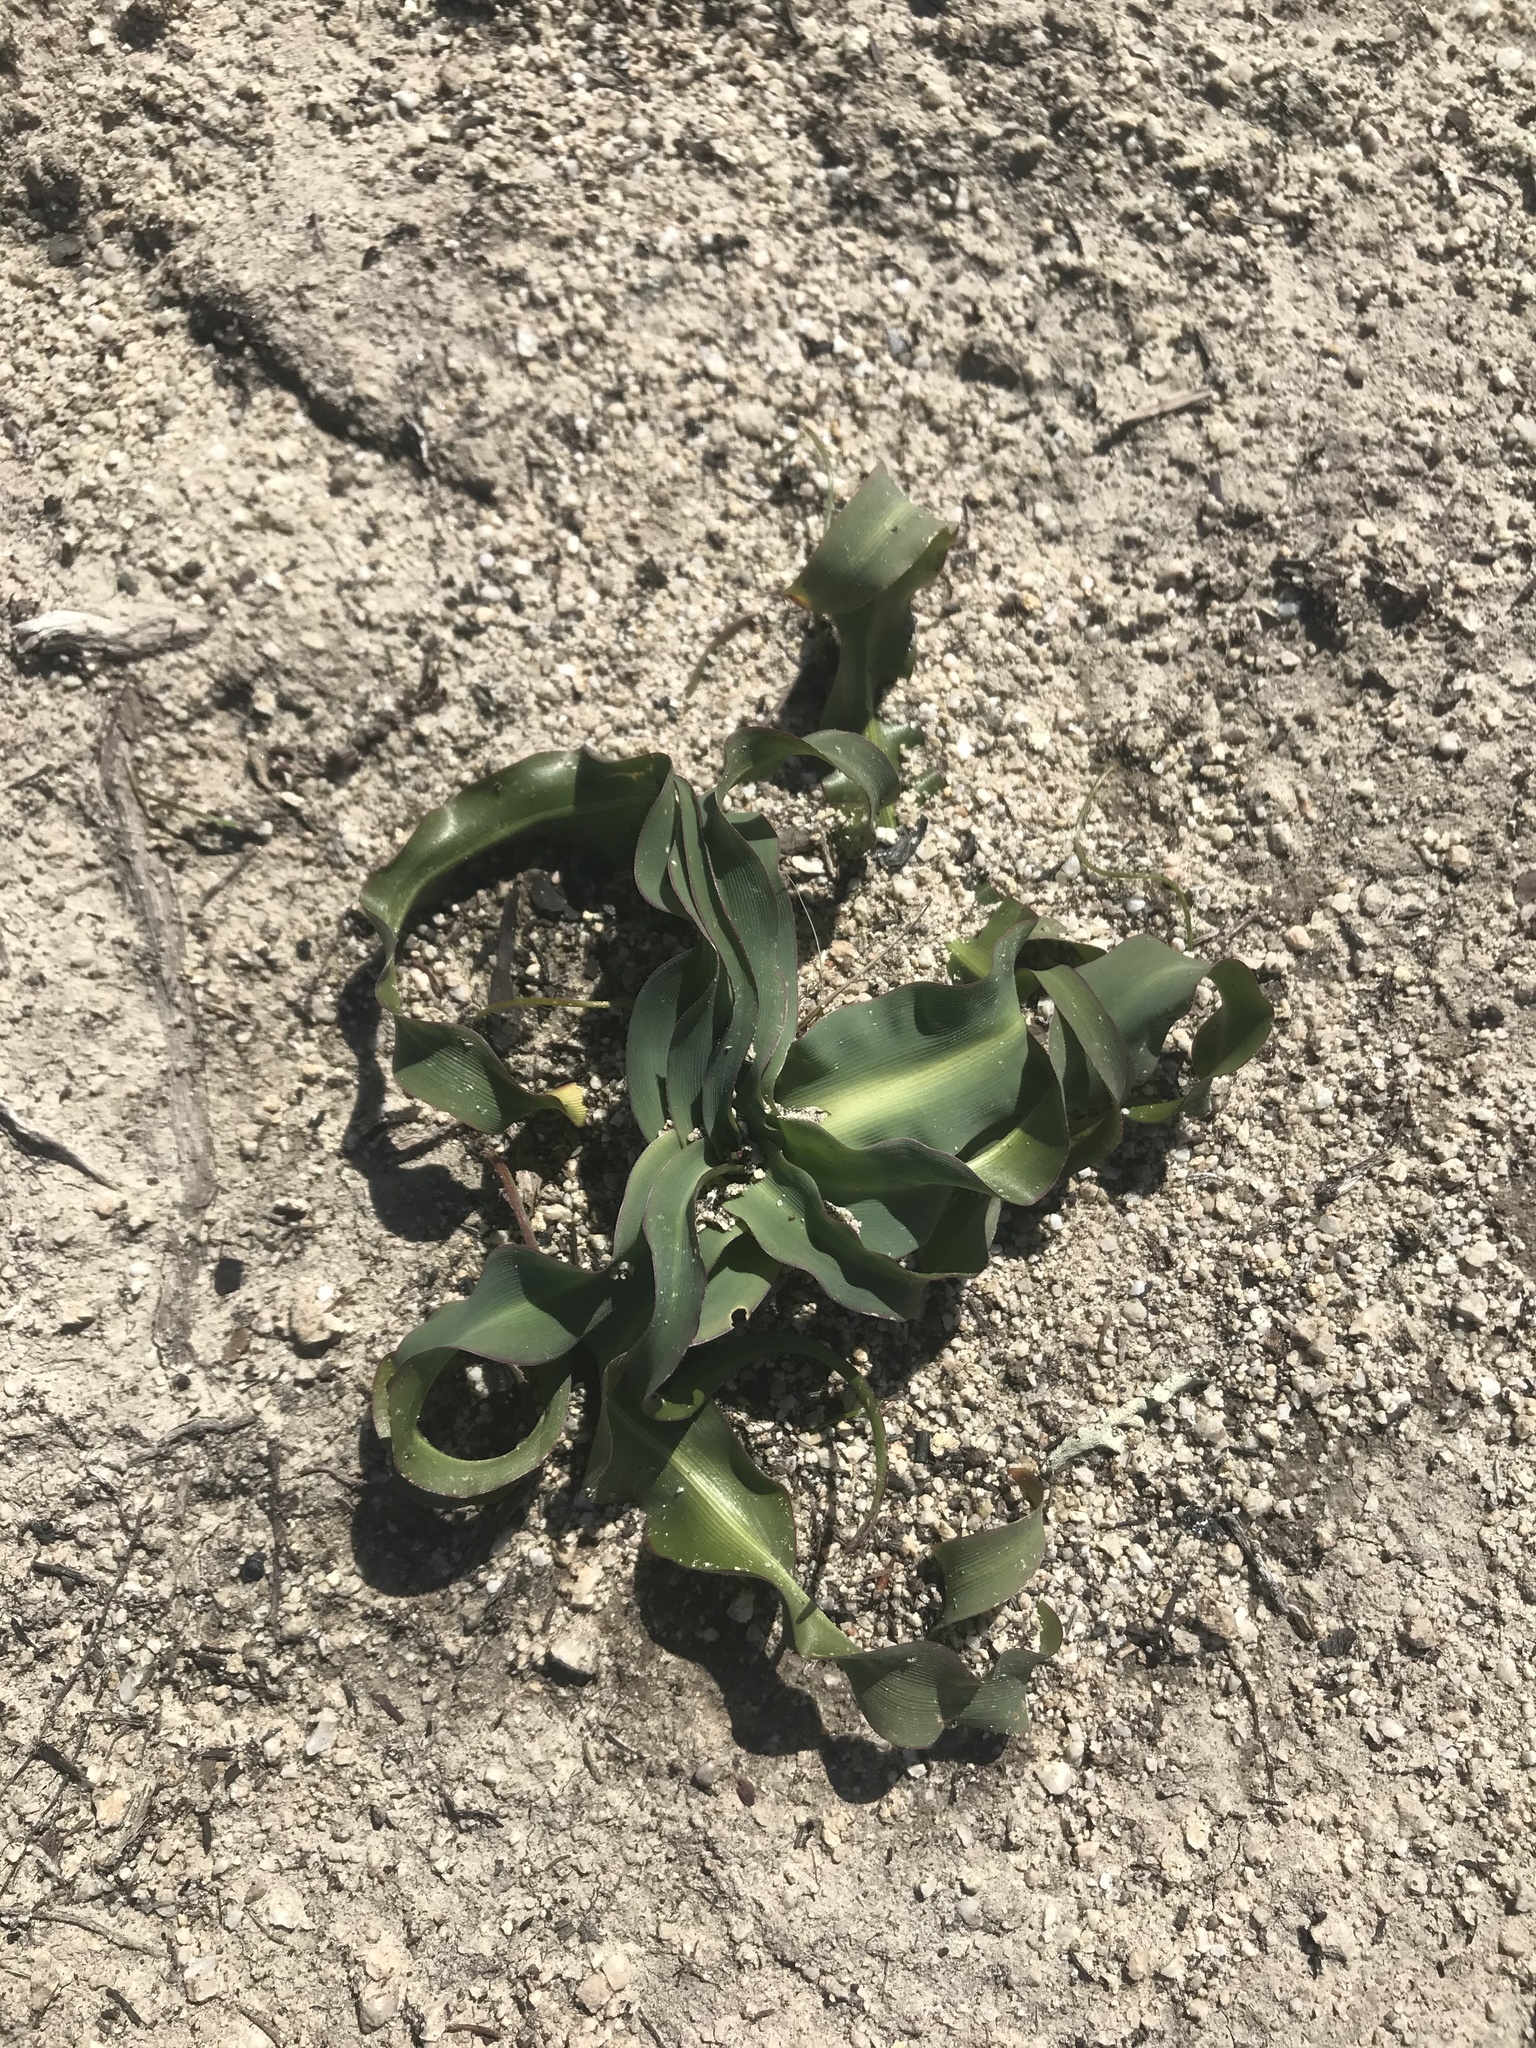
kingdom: Plantae
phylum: Tracheophyta
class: Liliopsida
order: Asparagales
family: Asparagaceae
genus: Chlorogalum
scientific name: Chlorogalum pomeridianum
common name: Amole
